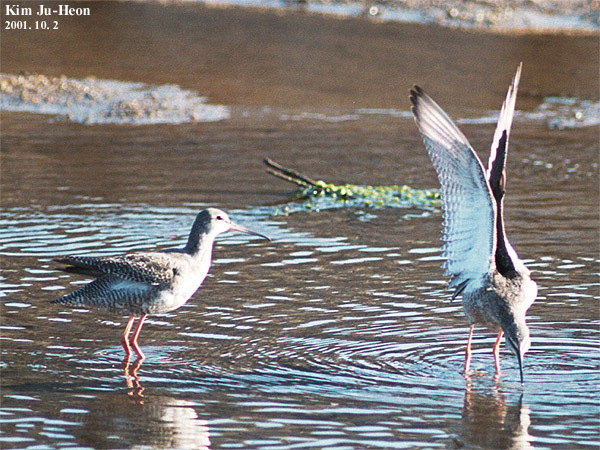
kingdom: Animalia
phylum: Chordata
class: Aves
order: Charadriiformes
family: Scolopacidae
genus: Tringa
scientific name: Tringa erythropus
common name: Spotted redshank
